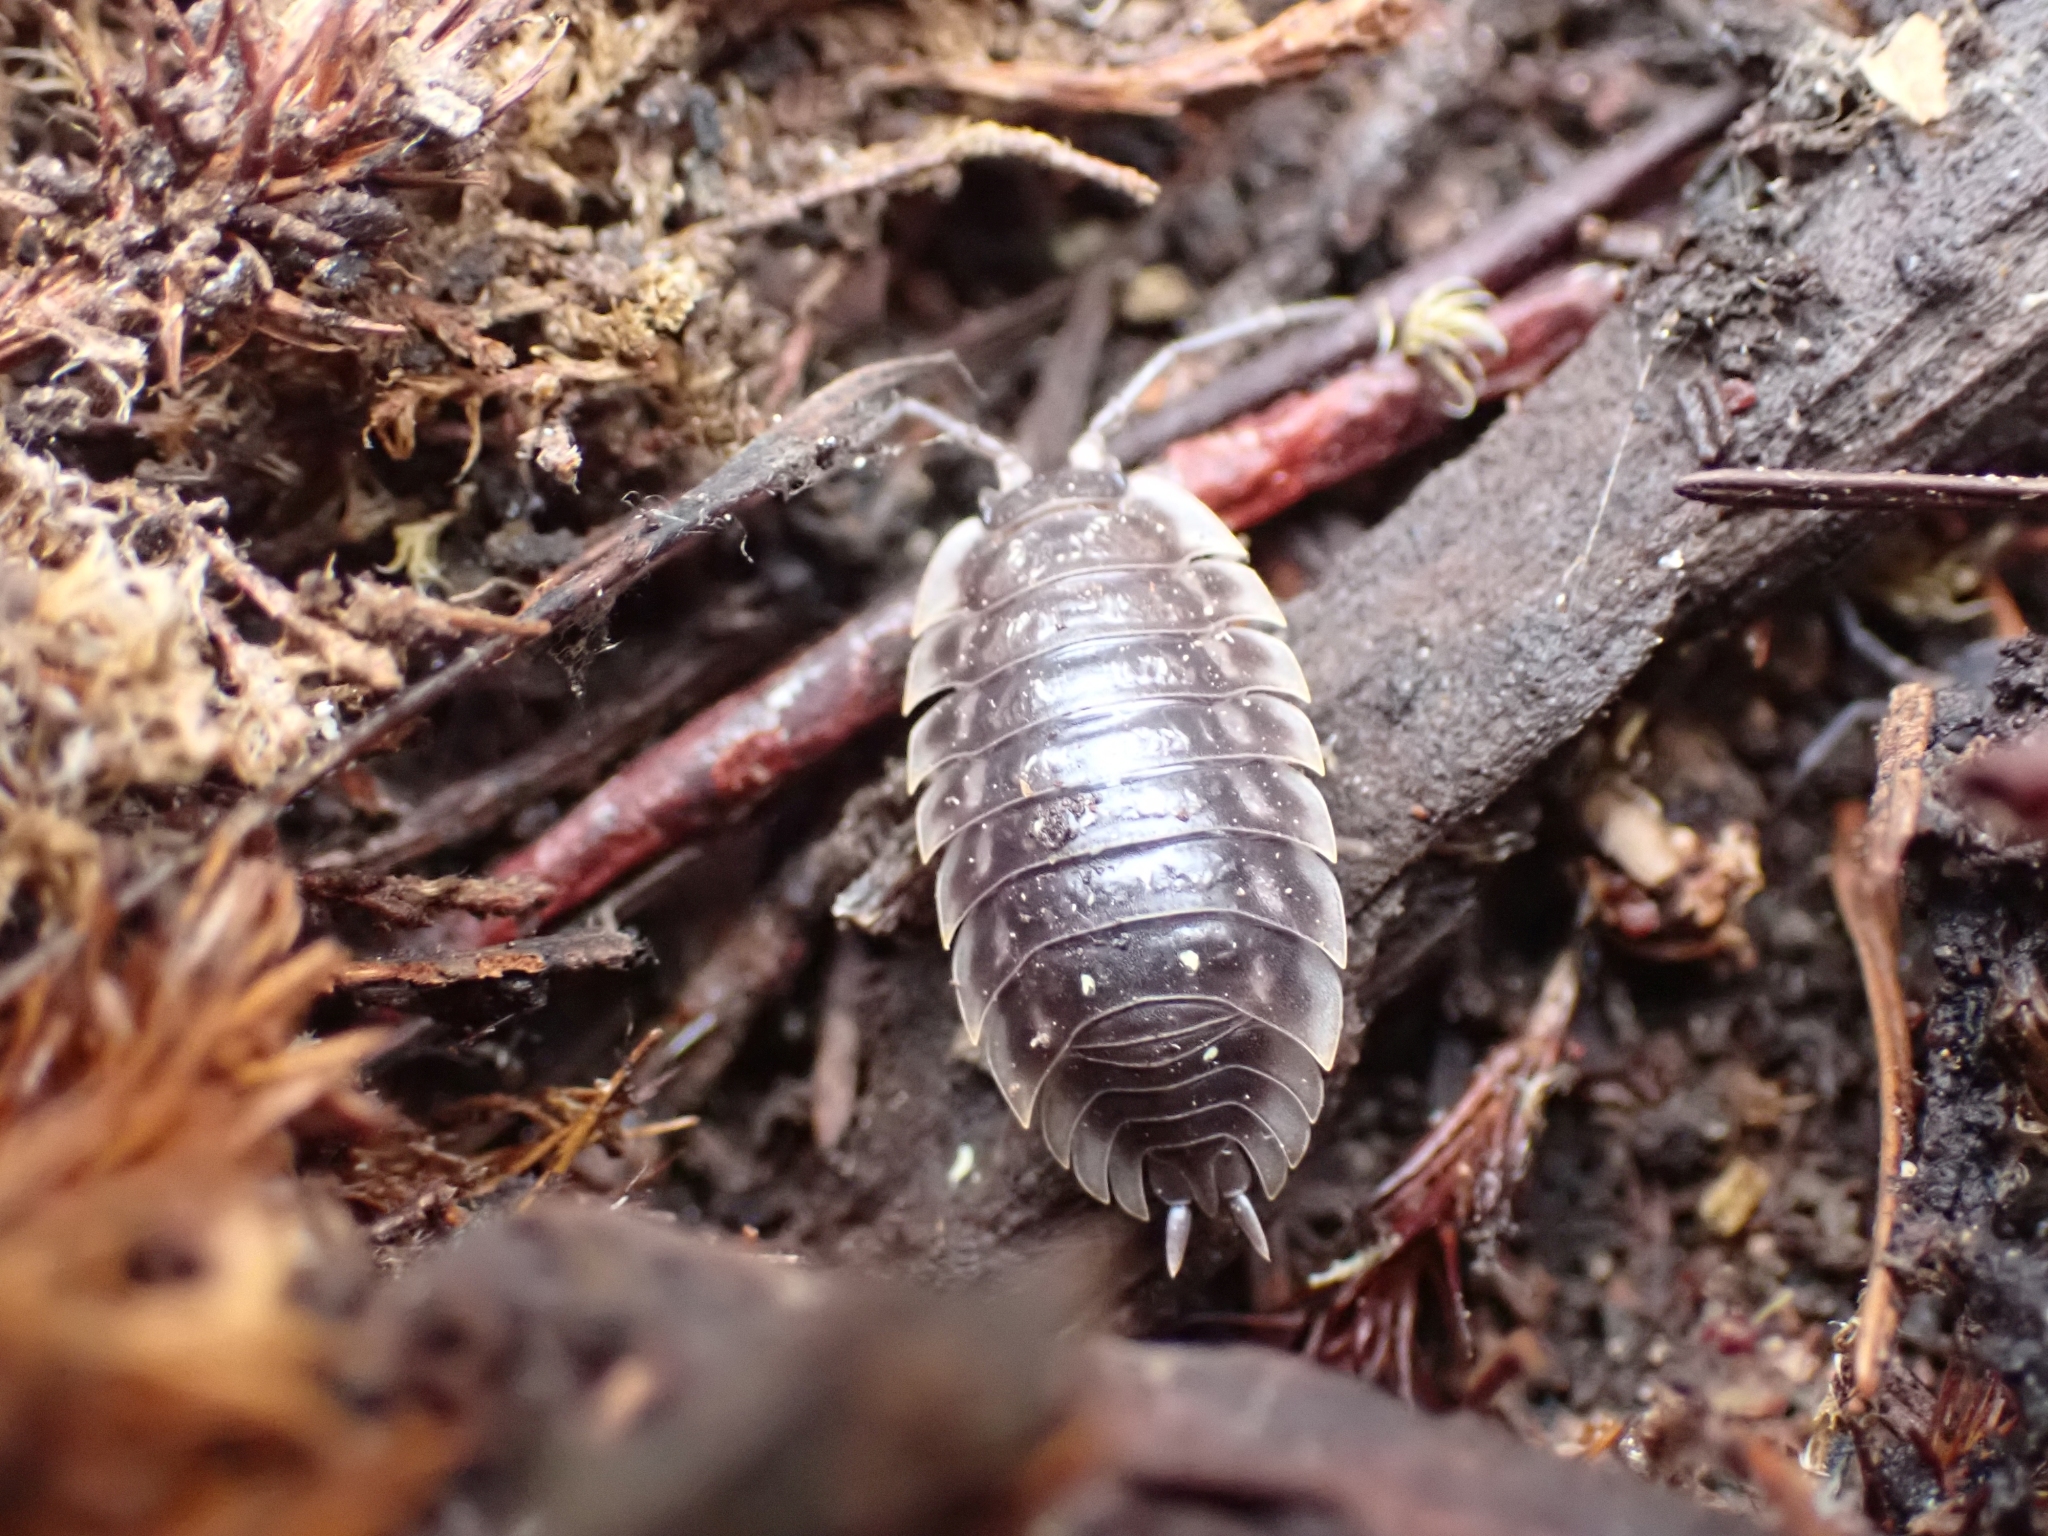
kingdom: Animalia
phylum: Arthropoda
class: Malacostraca
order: Isopoda
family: Oniscidae
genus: Oniscus
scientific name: Oniscus asellus
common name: Common shiny woodlouse
